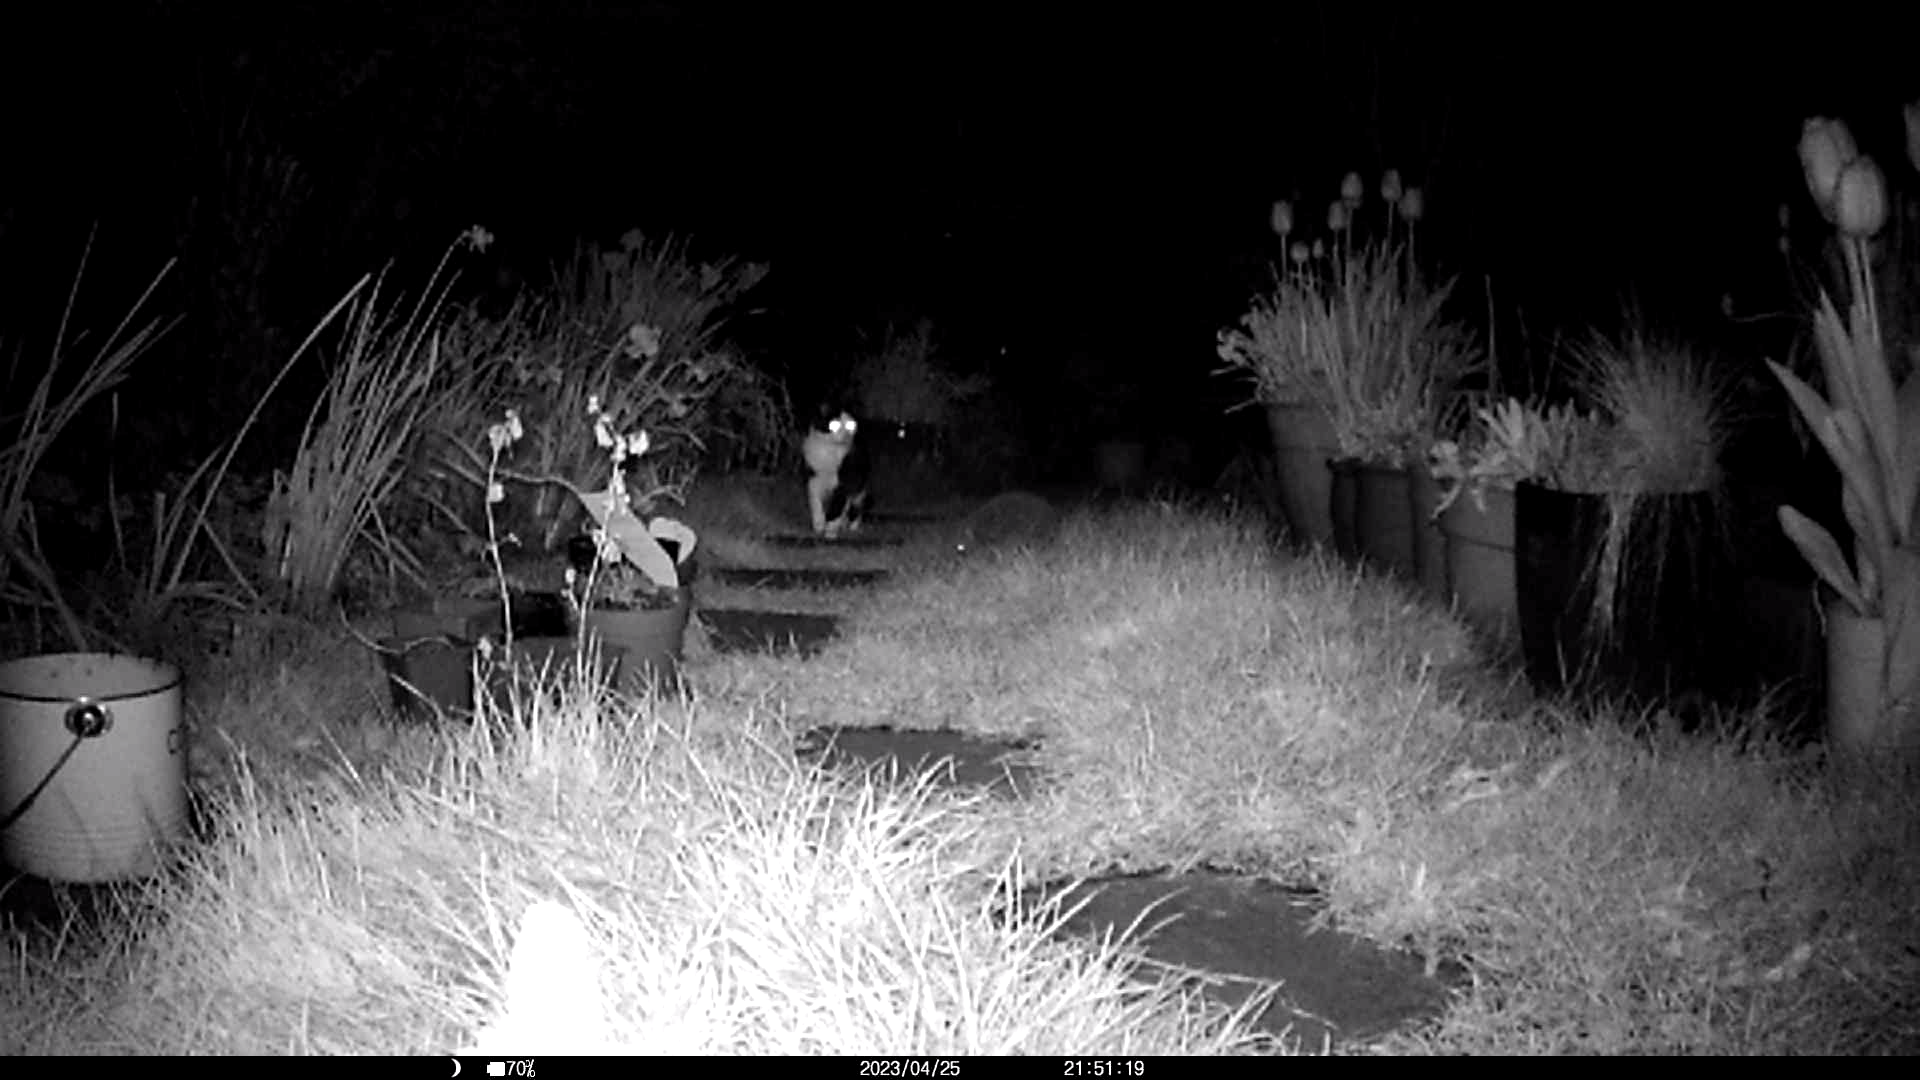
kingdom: Animalia
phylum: Chordata
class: Mammalia
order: Erinaceomorpha
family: Erinaceidae
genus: Erinaceus
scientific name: Erinaceus europaeus
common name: West european hedgehog
